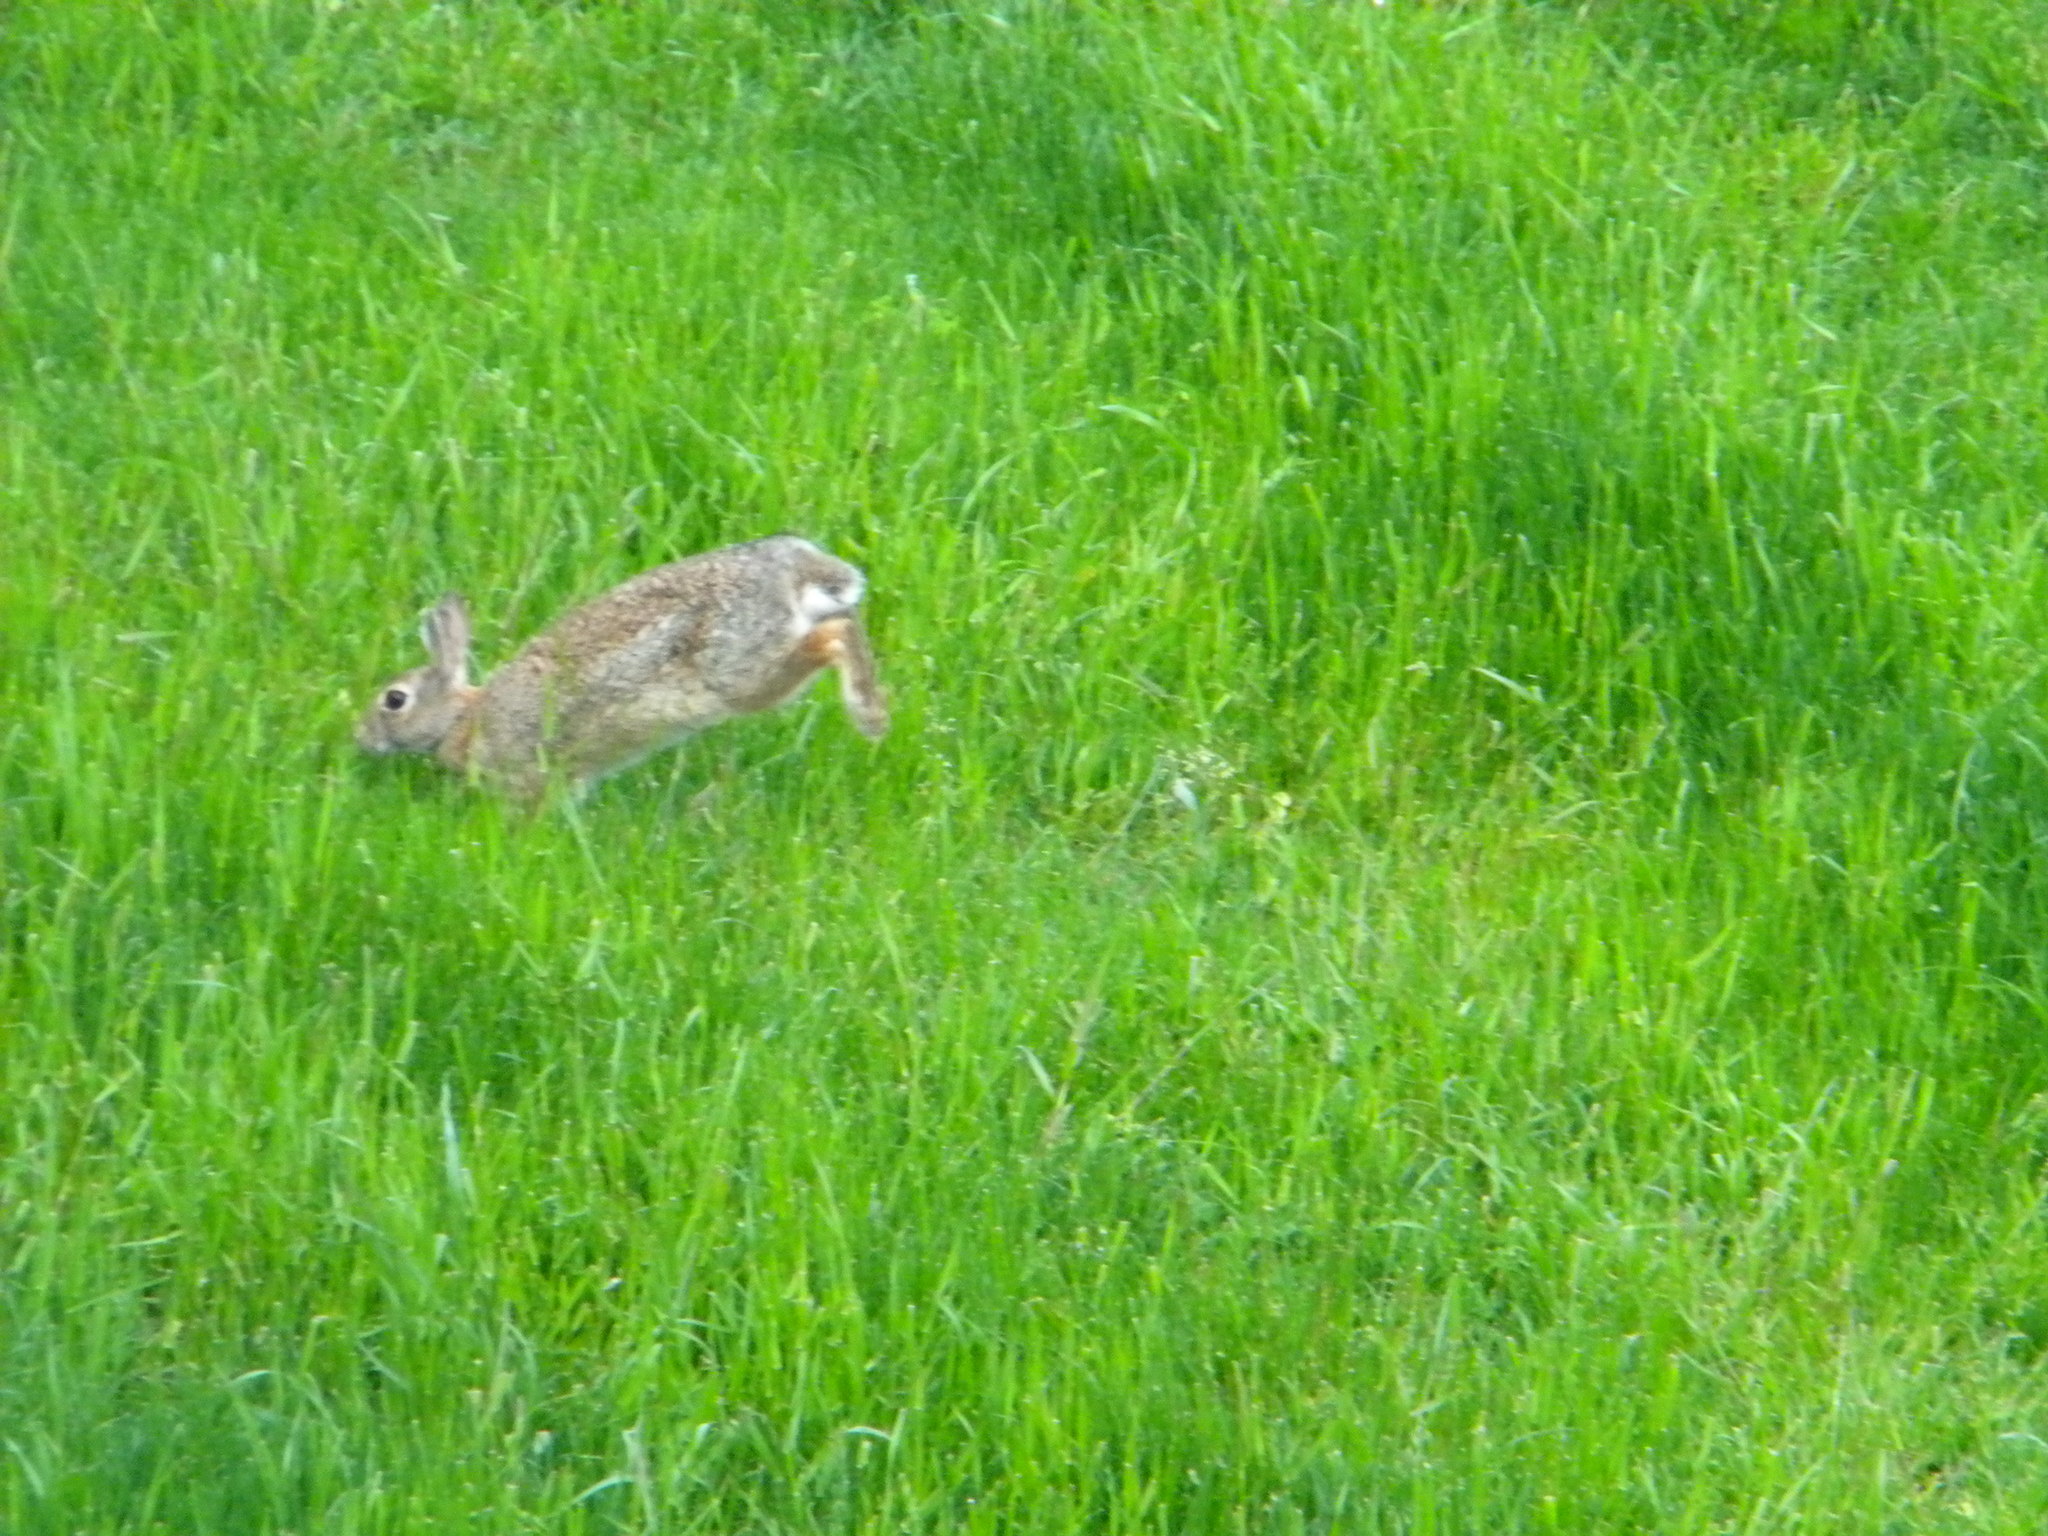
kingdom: Animalia
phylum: Chordata
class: Mammalia
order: Lagomorpha
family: Leporidae
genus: Sylvilagus
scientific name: Sylvilagus floridanus
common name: Eastern cottontail
